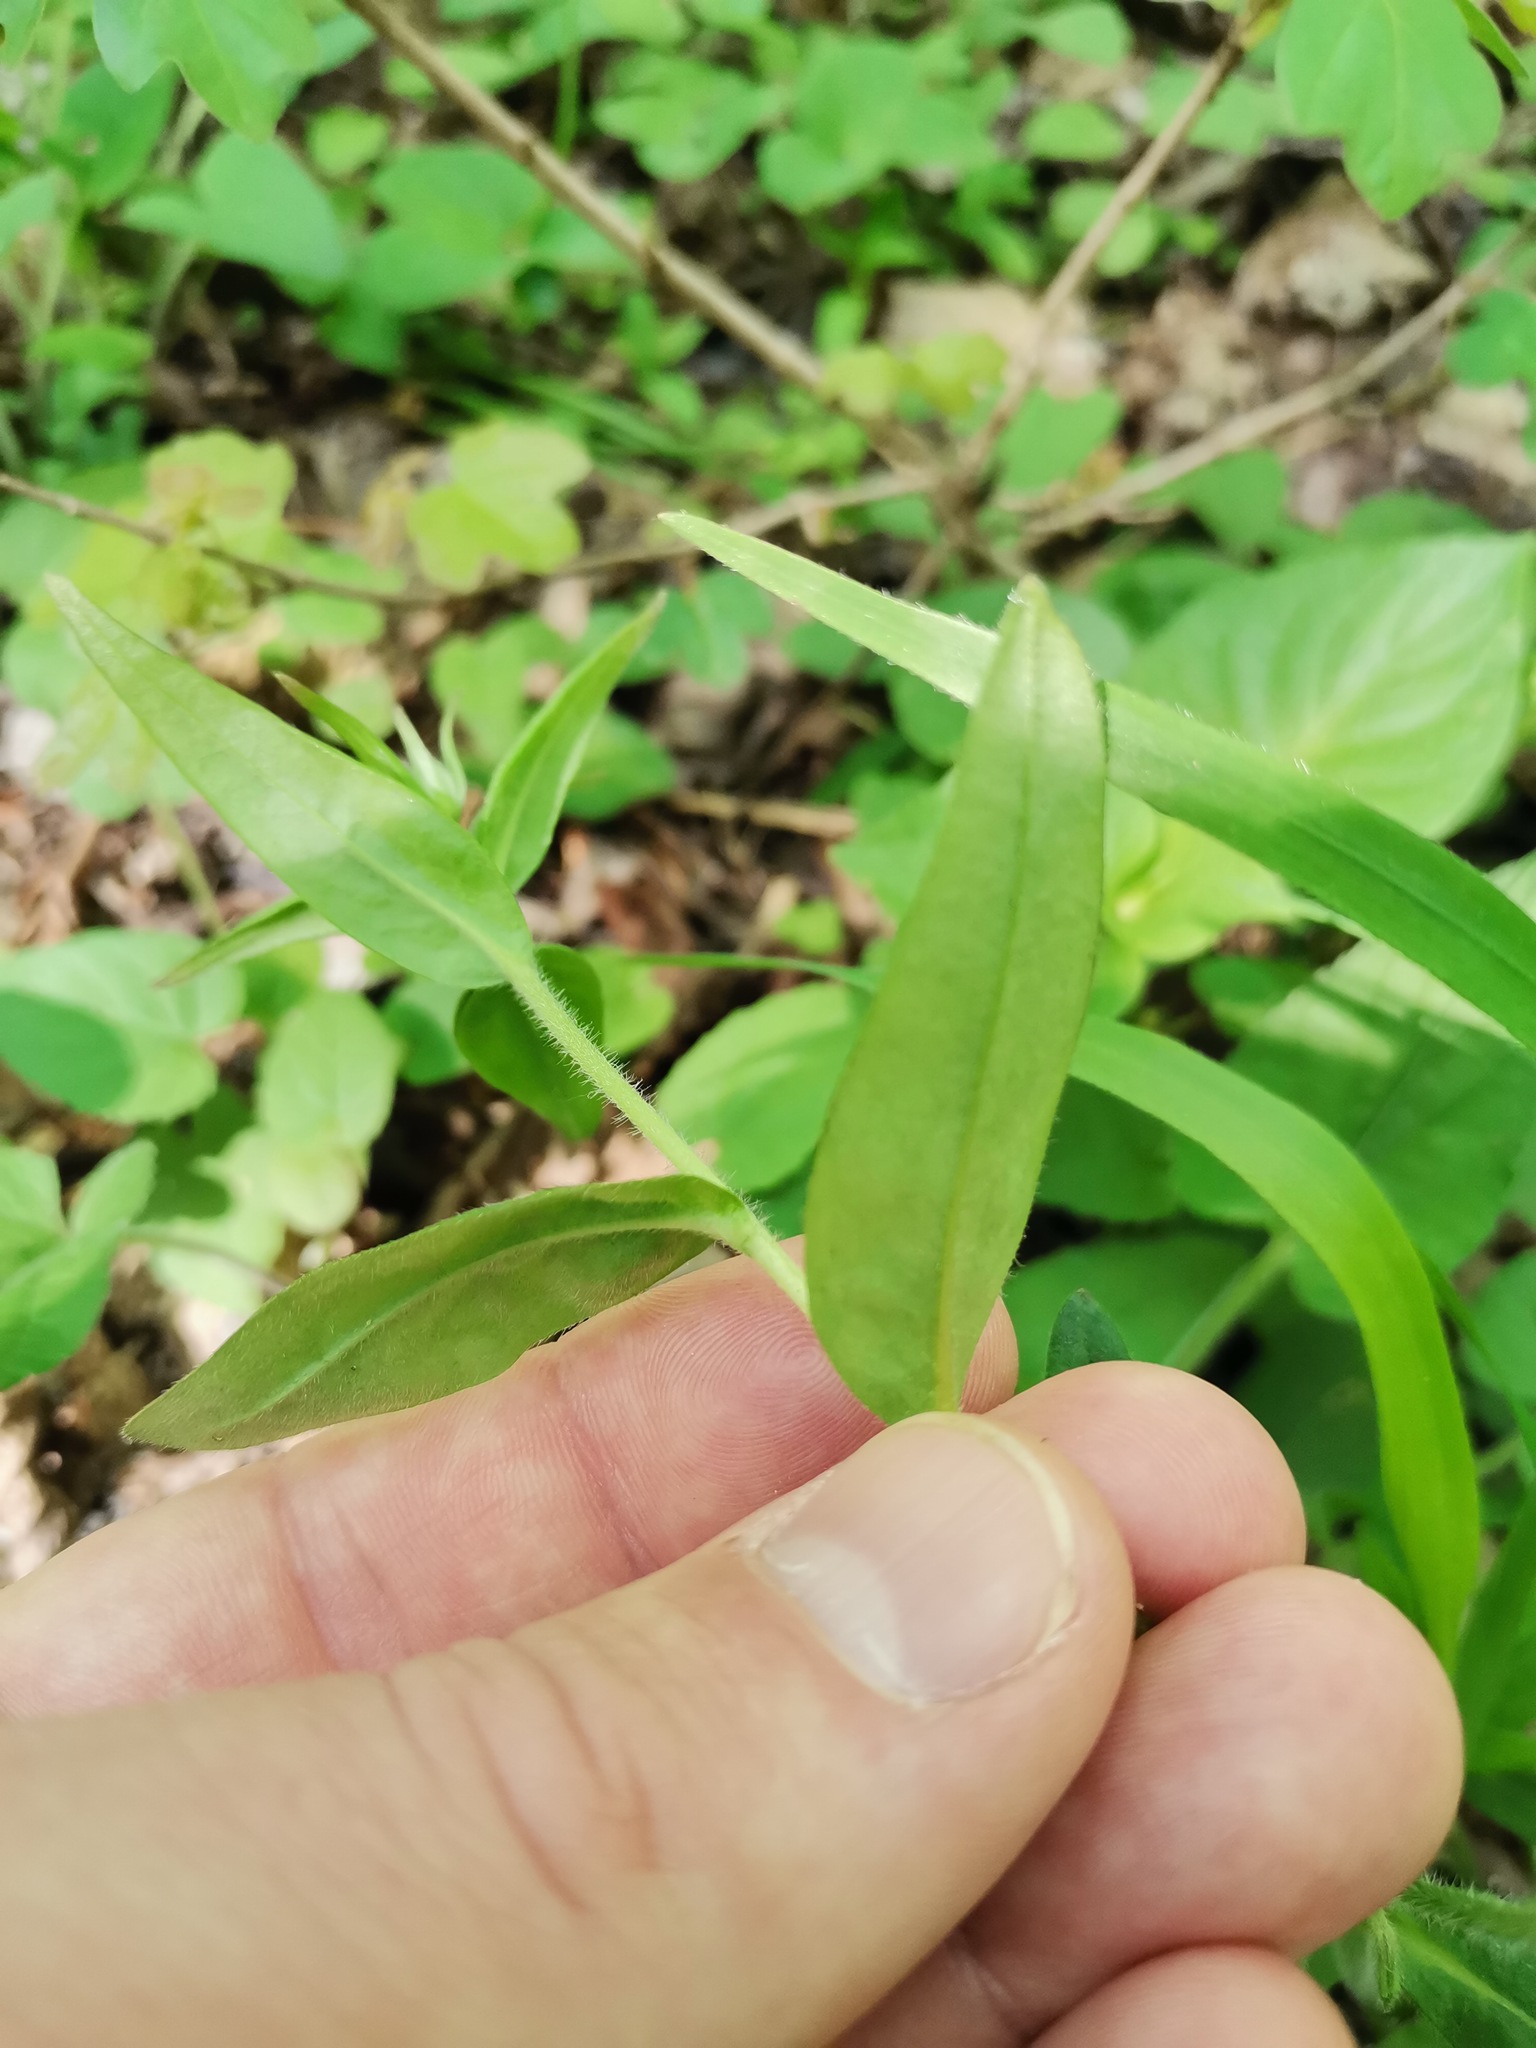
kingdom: Plantae
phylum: Tracheophyta
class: Magnoliopsida
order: Boraginales
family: Boraginaceae
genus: Aegonychon
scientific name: Aegonychon purpurocaeruleum
